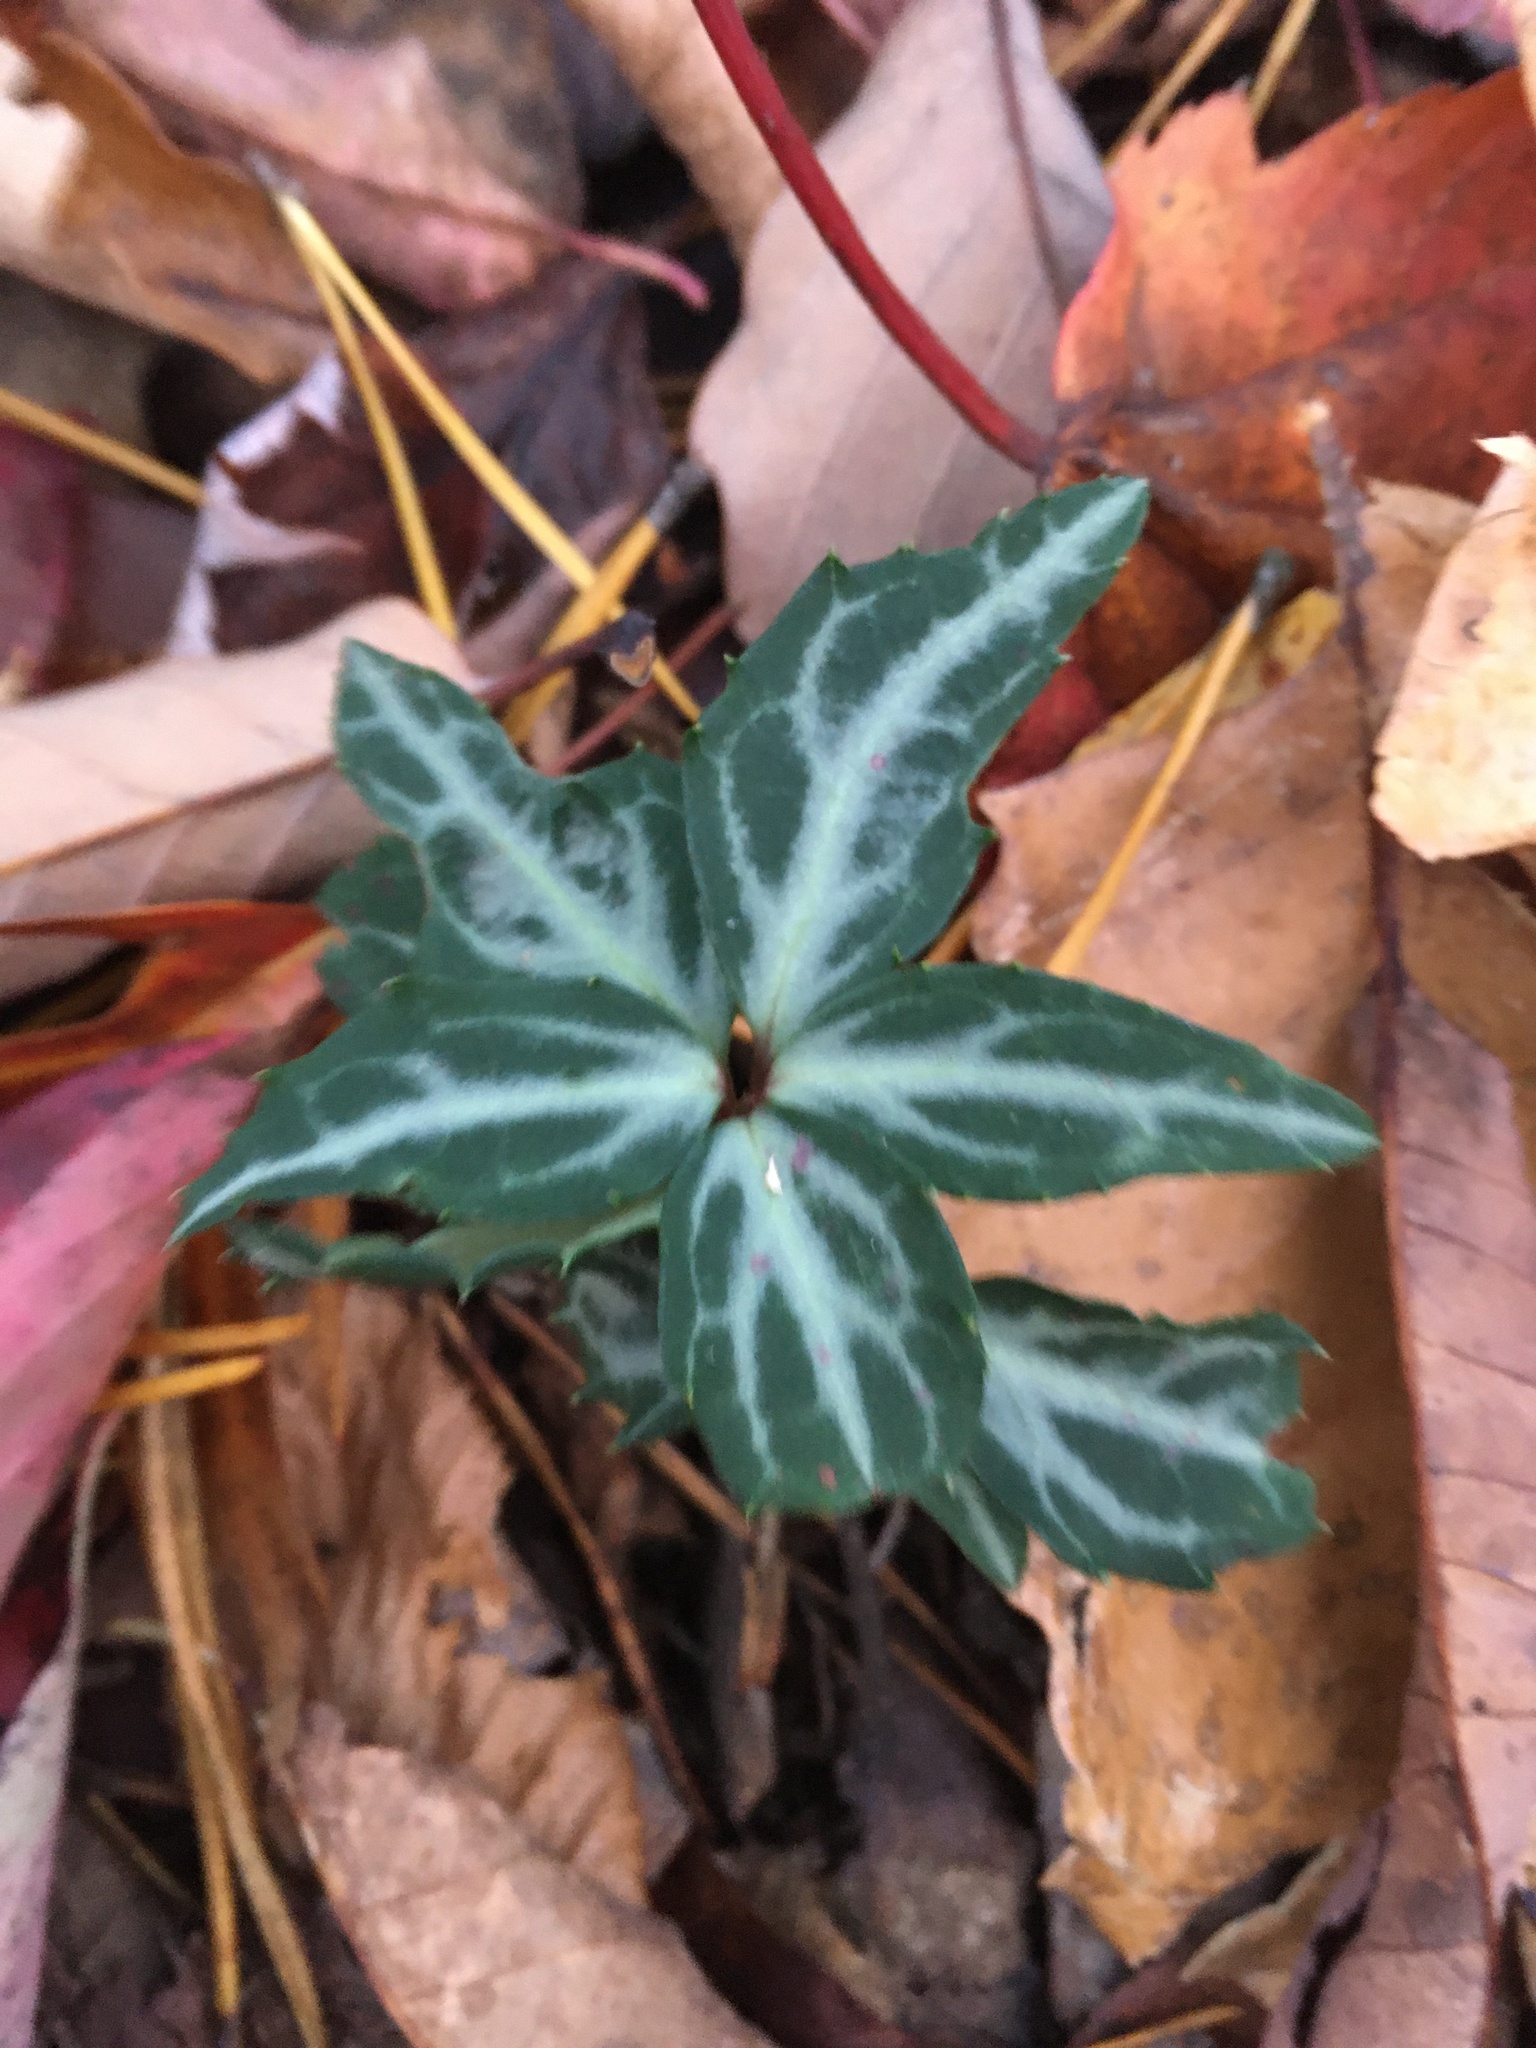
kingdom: Plantae
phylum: Tracheophyta
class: Magnoliopsida
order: Ericales
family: Ericaceae
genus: Chimaphila
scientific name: Chimaphila maculata
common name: Spotted pipsissewa
